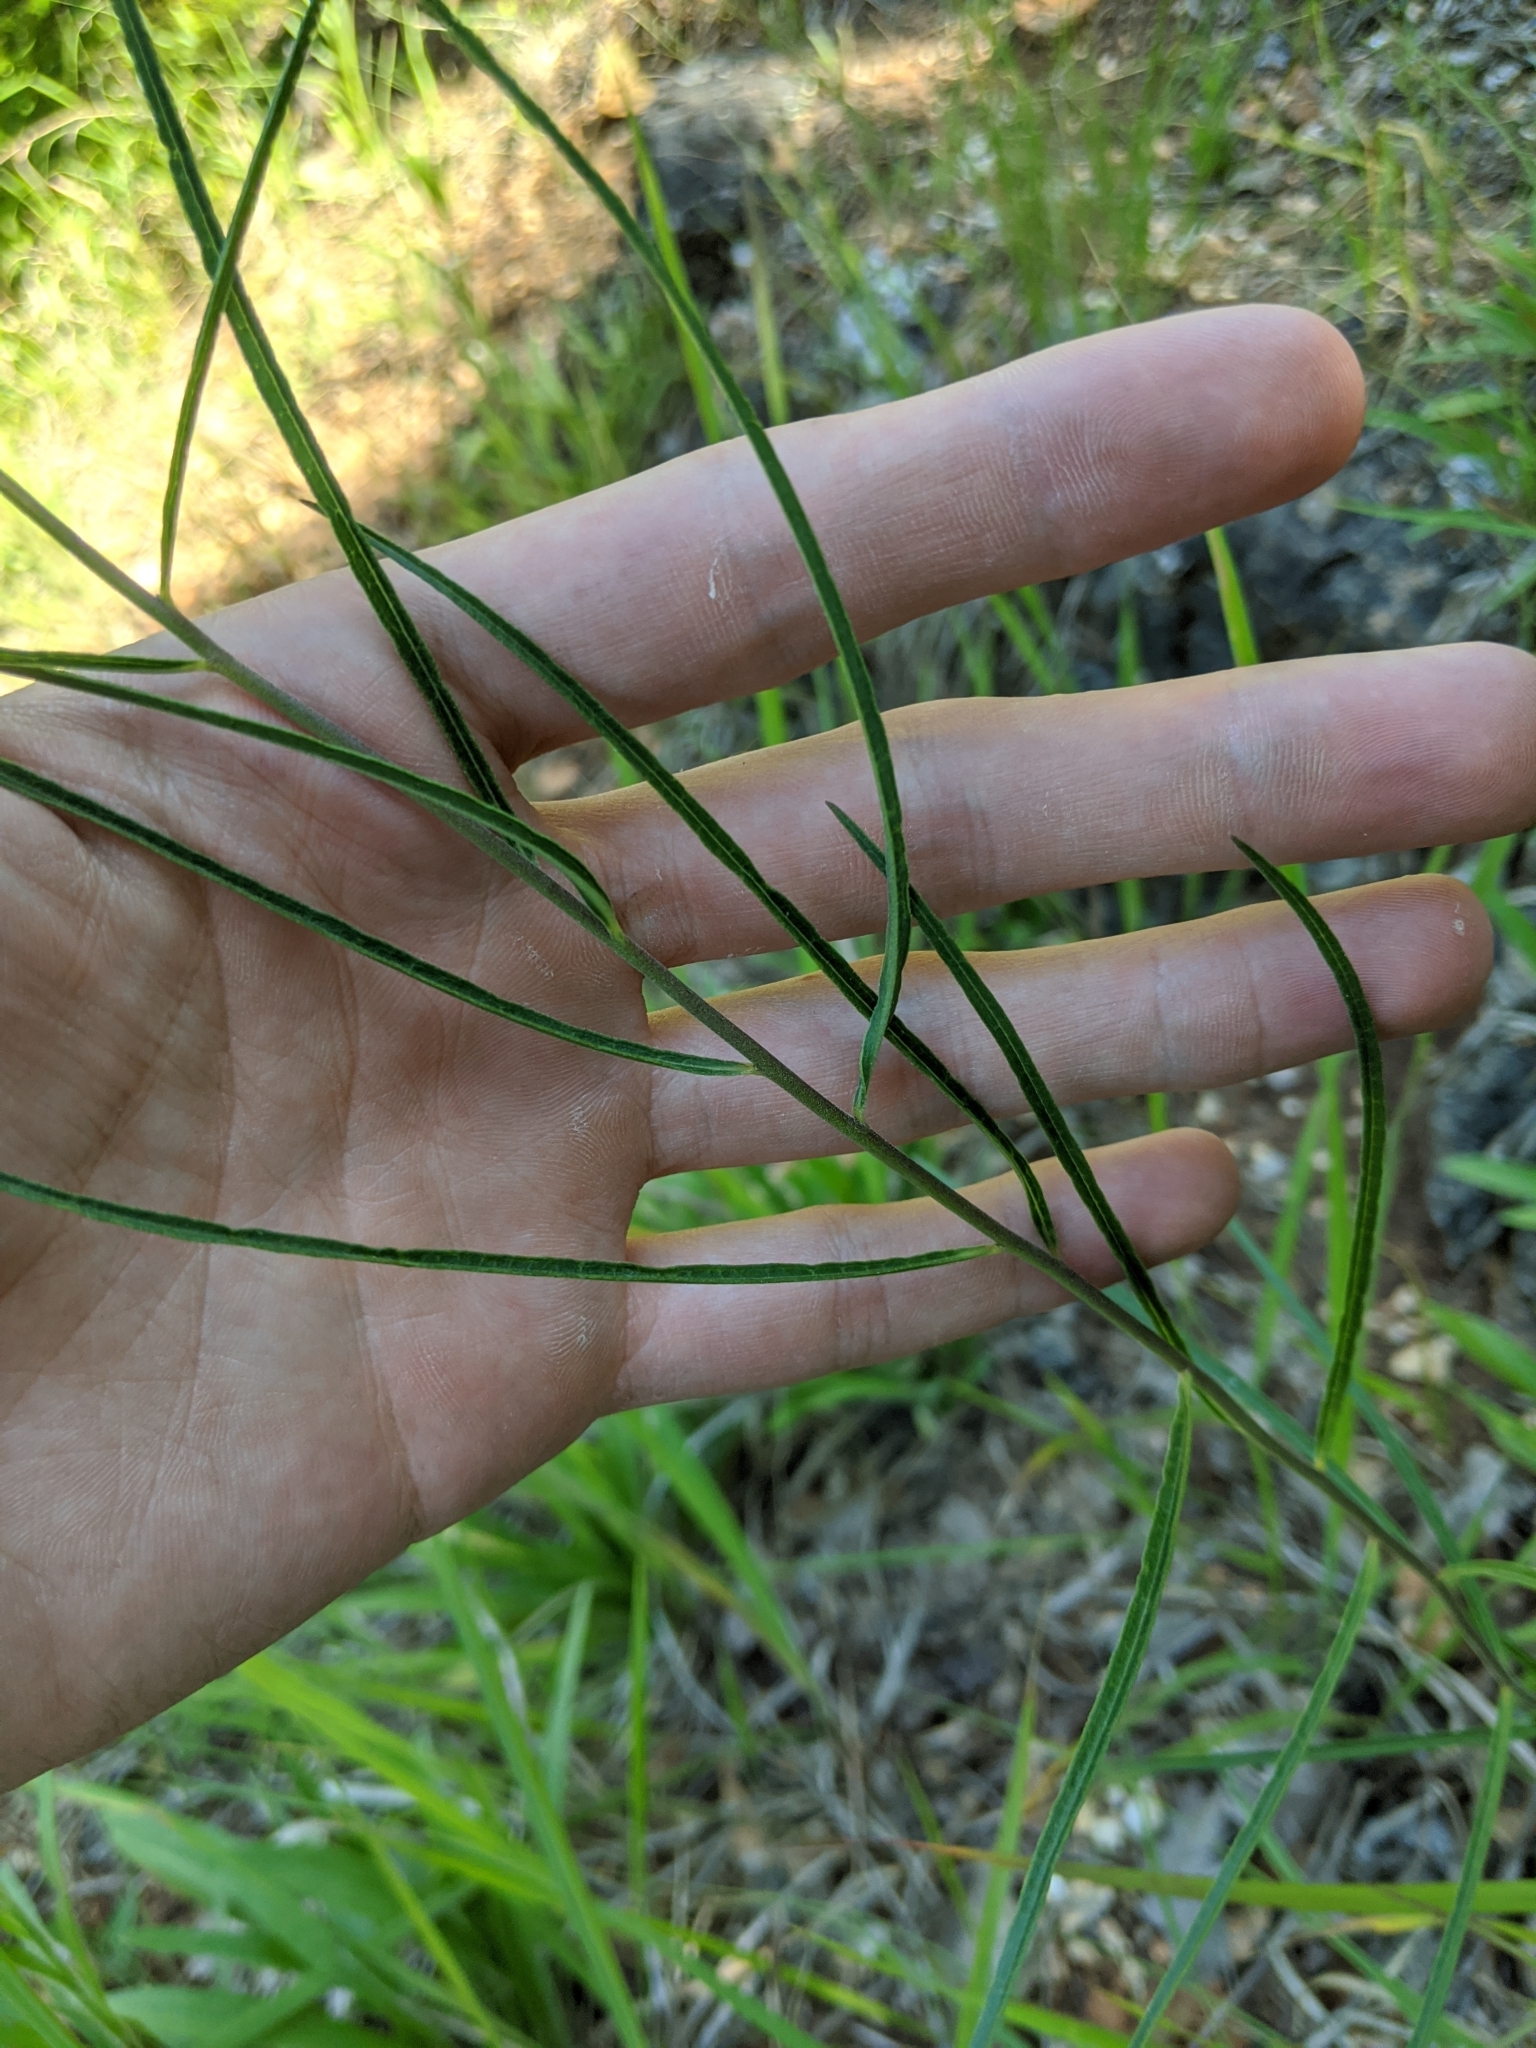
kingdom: Plantae
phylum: Tracheophyta
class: Magnoliopsida
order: Gentianales
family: Apocynaceae
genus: Asclepias
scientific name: Asclepias stenophylla
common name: Narrow-leaf milkweed
